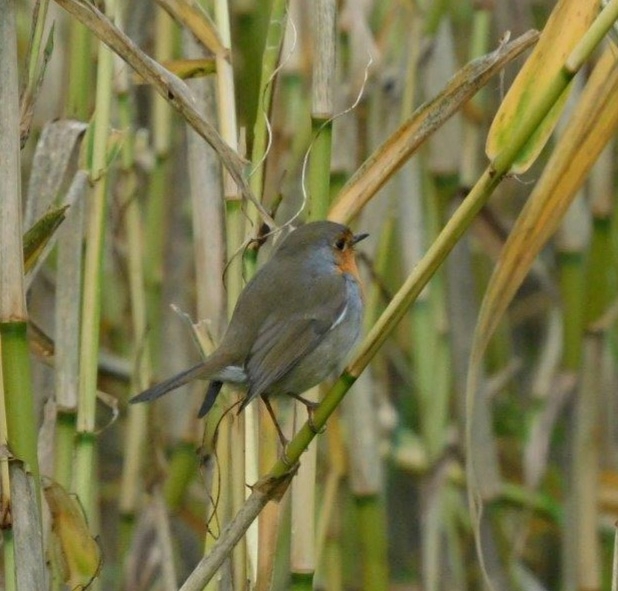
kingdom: Animalia
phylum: Chordata
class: Aves
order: Passeriformes
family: Muscicapidae
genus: Erithacus
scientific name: Erithacus rubecula
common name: European robin
